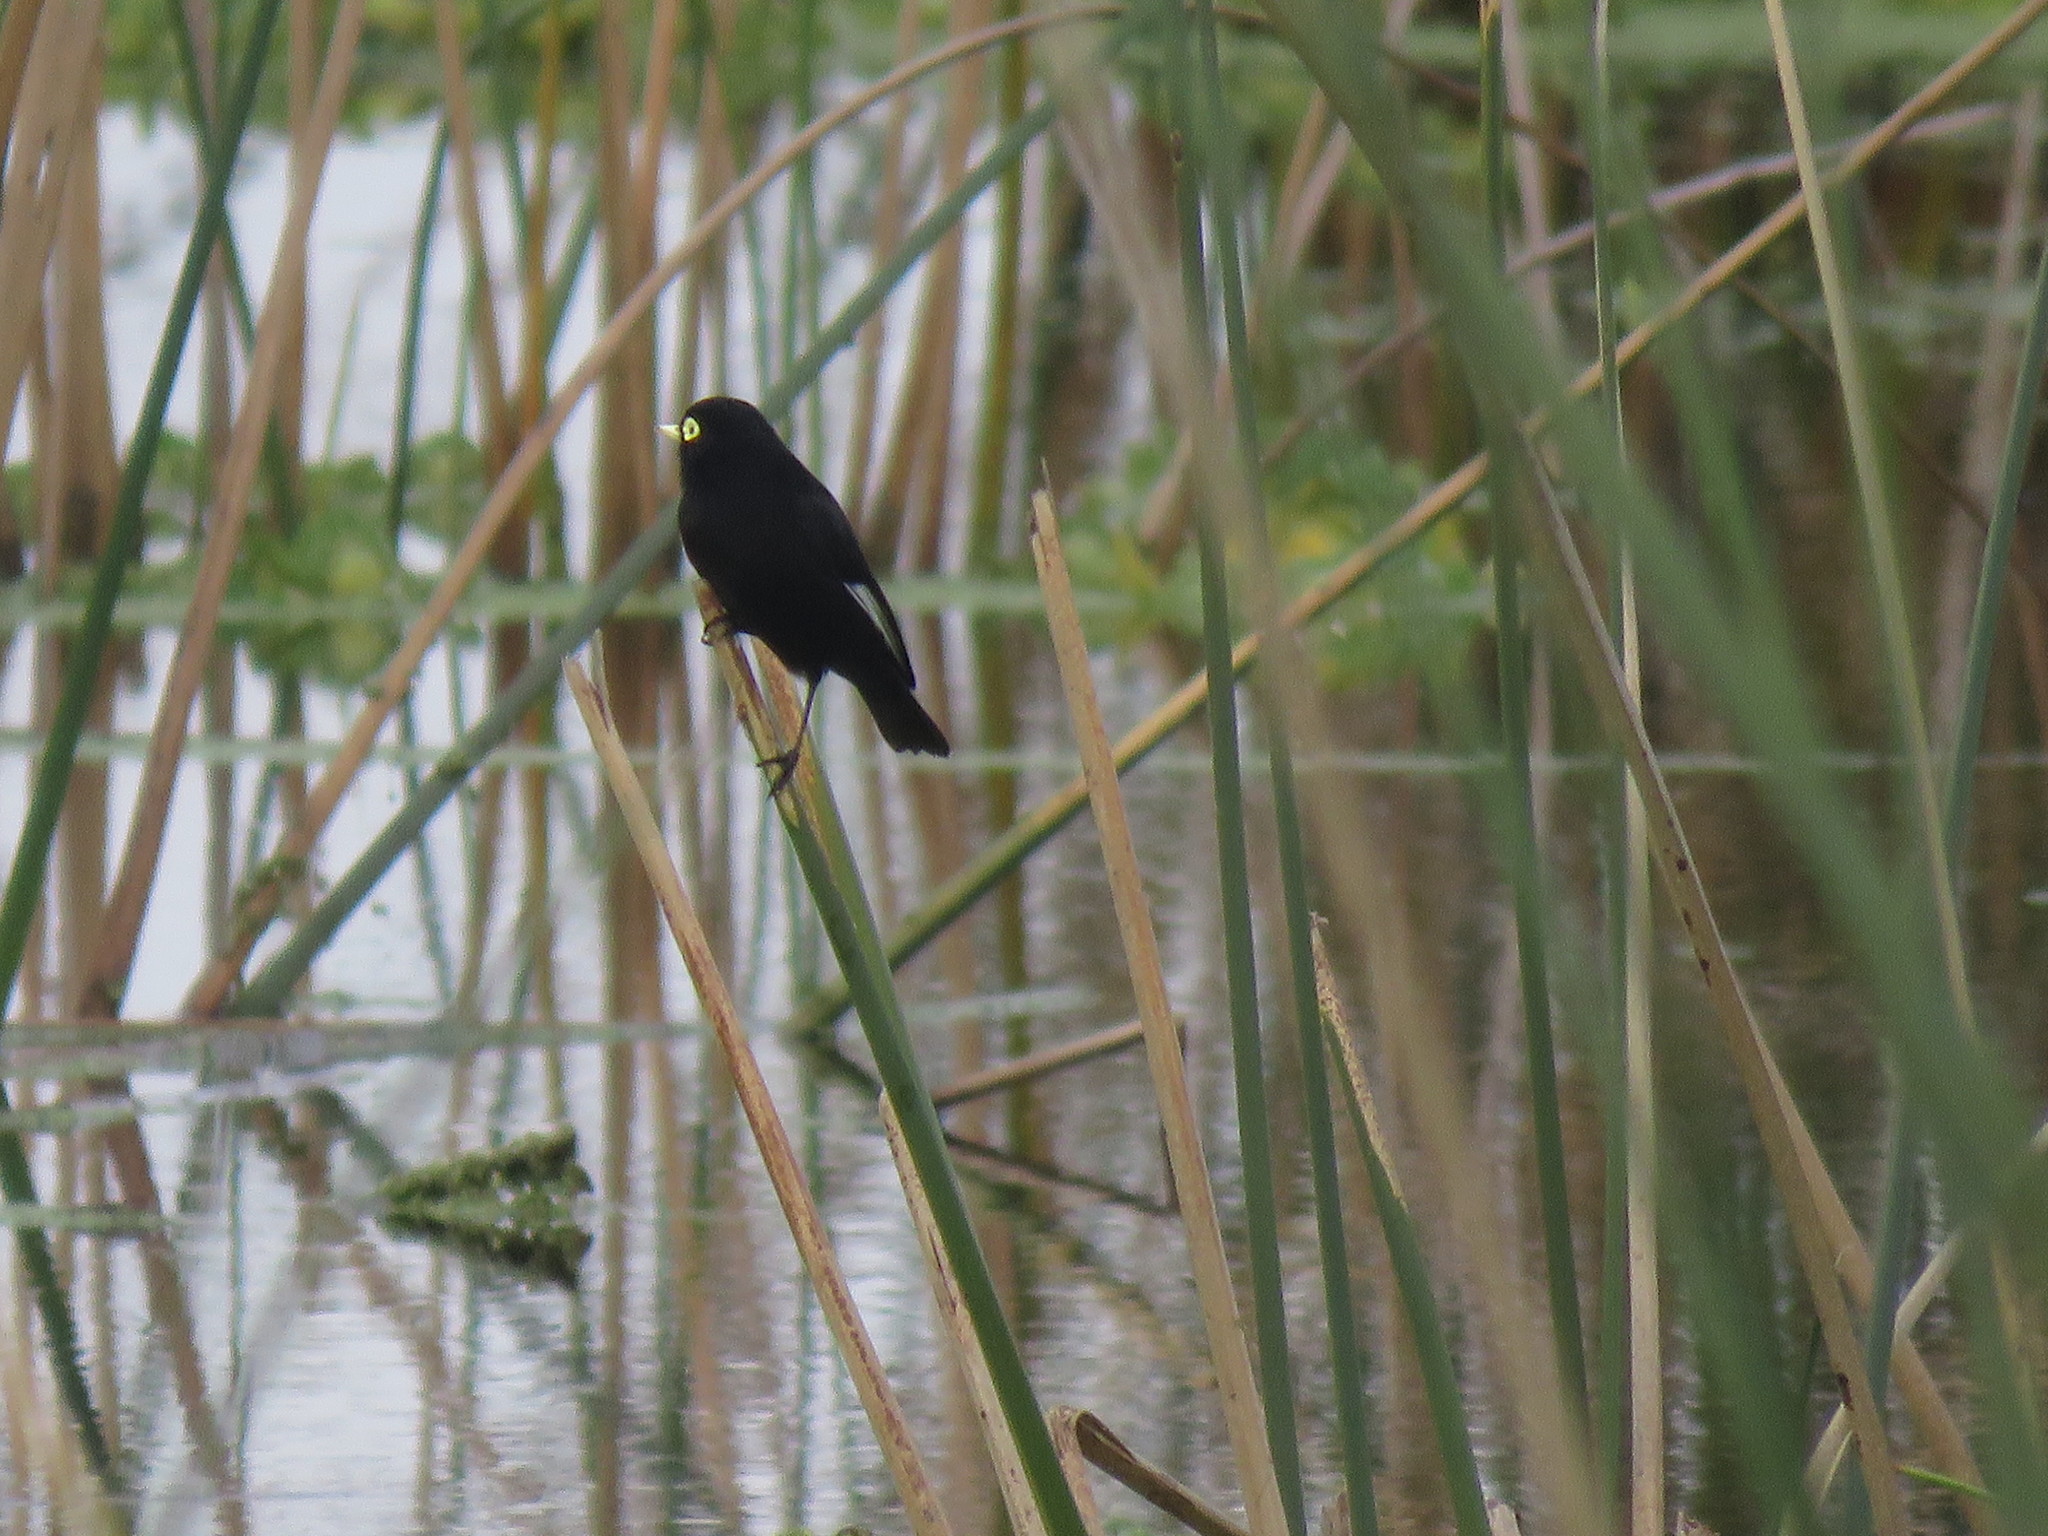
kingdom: Animalia
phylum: Chordata
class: Aves
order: Passeriformes
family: Tyrannidae
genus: Hymenops
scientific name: Hymenops perspicillatus
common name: Spectacled tyrant
